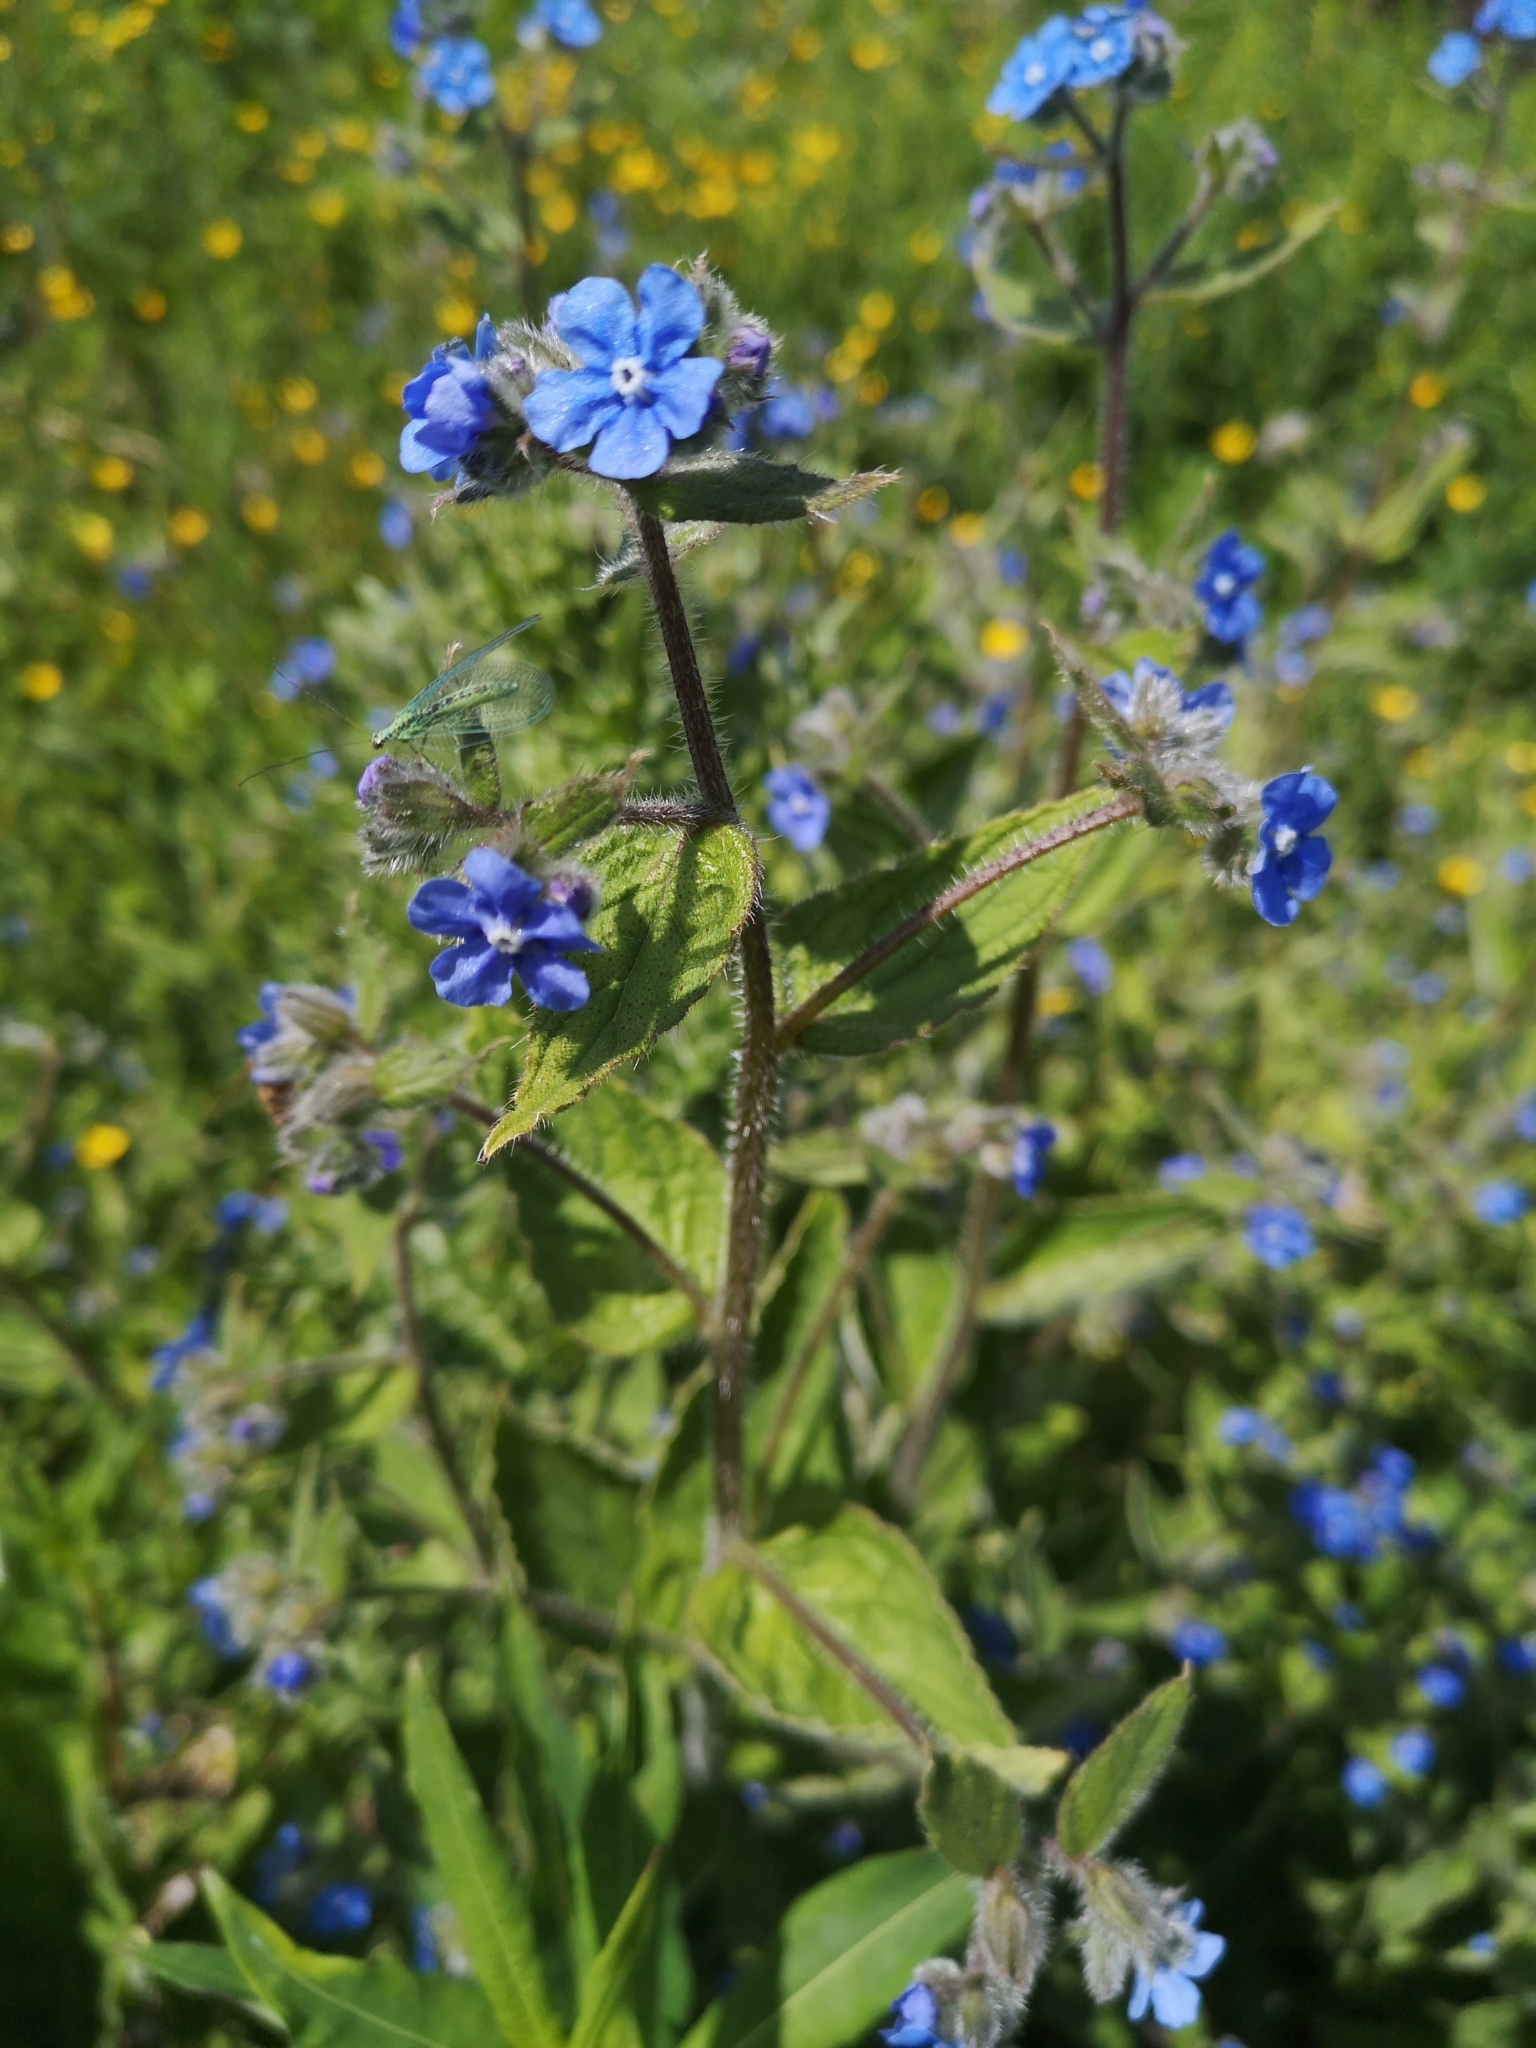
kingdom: Plantae
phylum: Tracheophyta
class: Magnoliopsida
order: Boraginales
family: Boraginaceae
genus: Pentaglottis
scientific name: Pentaglottis sempervirens
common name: Green alkanet
